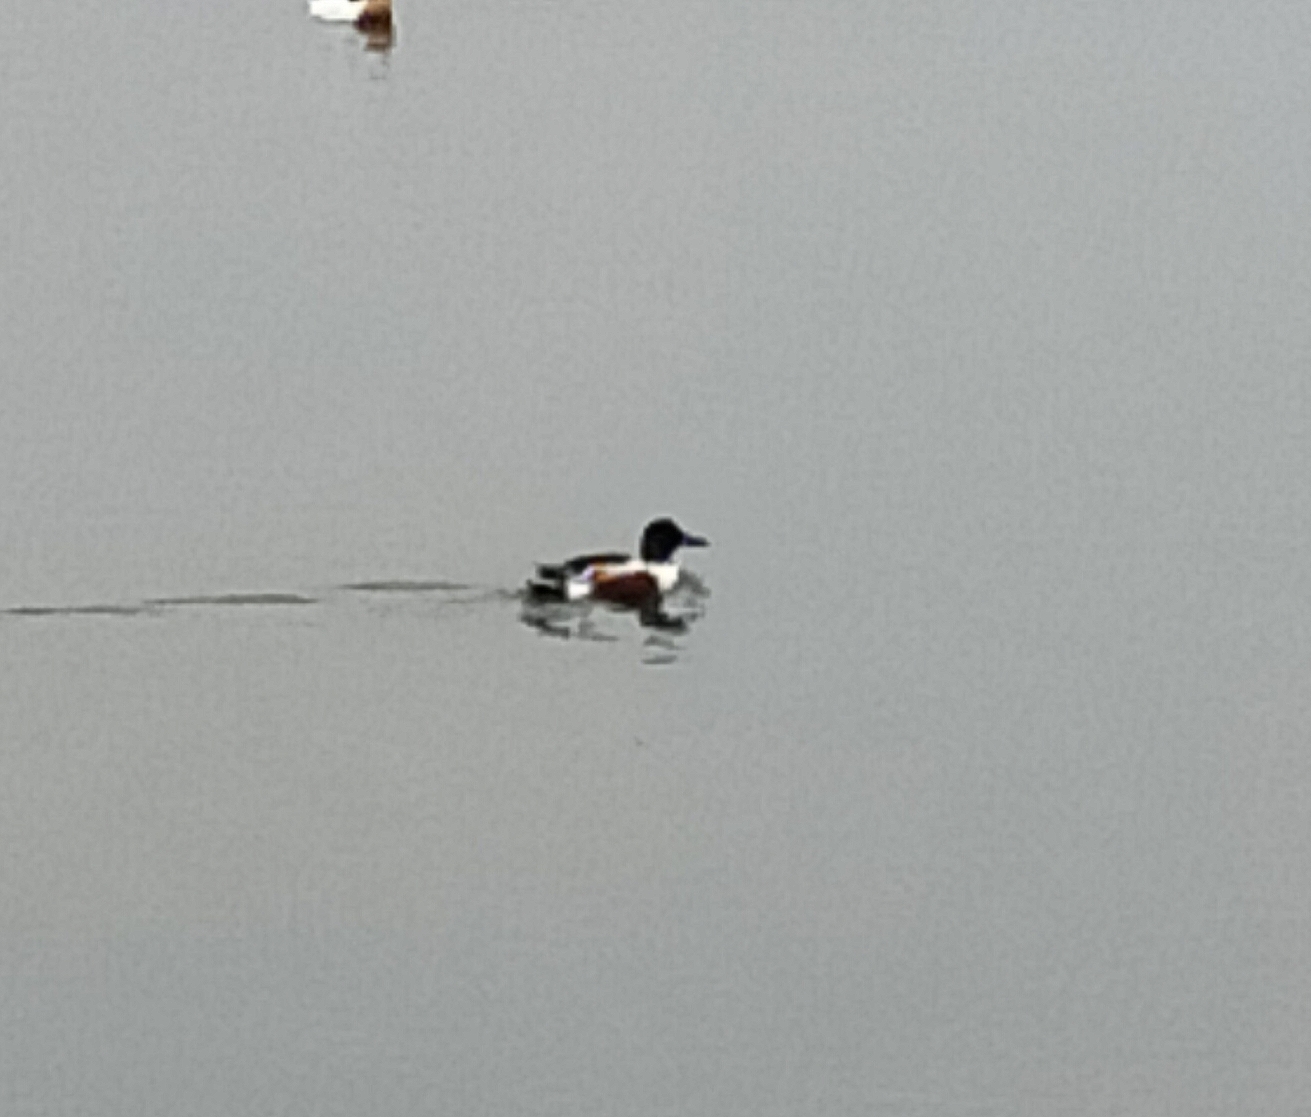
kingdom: Animalia
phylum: Chordata
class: Aves
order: Anseriformes
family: Anatidae
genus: Spatula
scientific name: Spatula clypeata
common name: Northern shoveler
